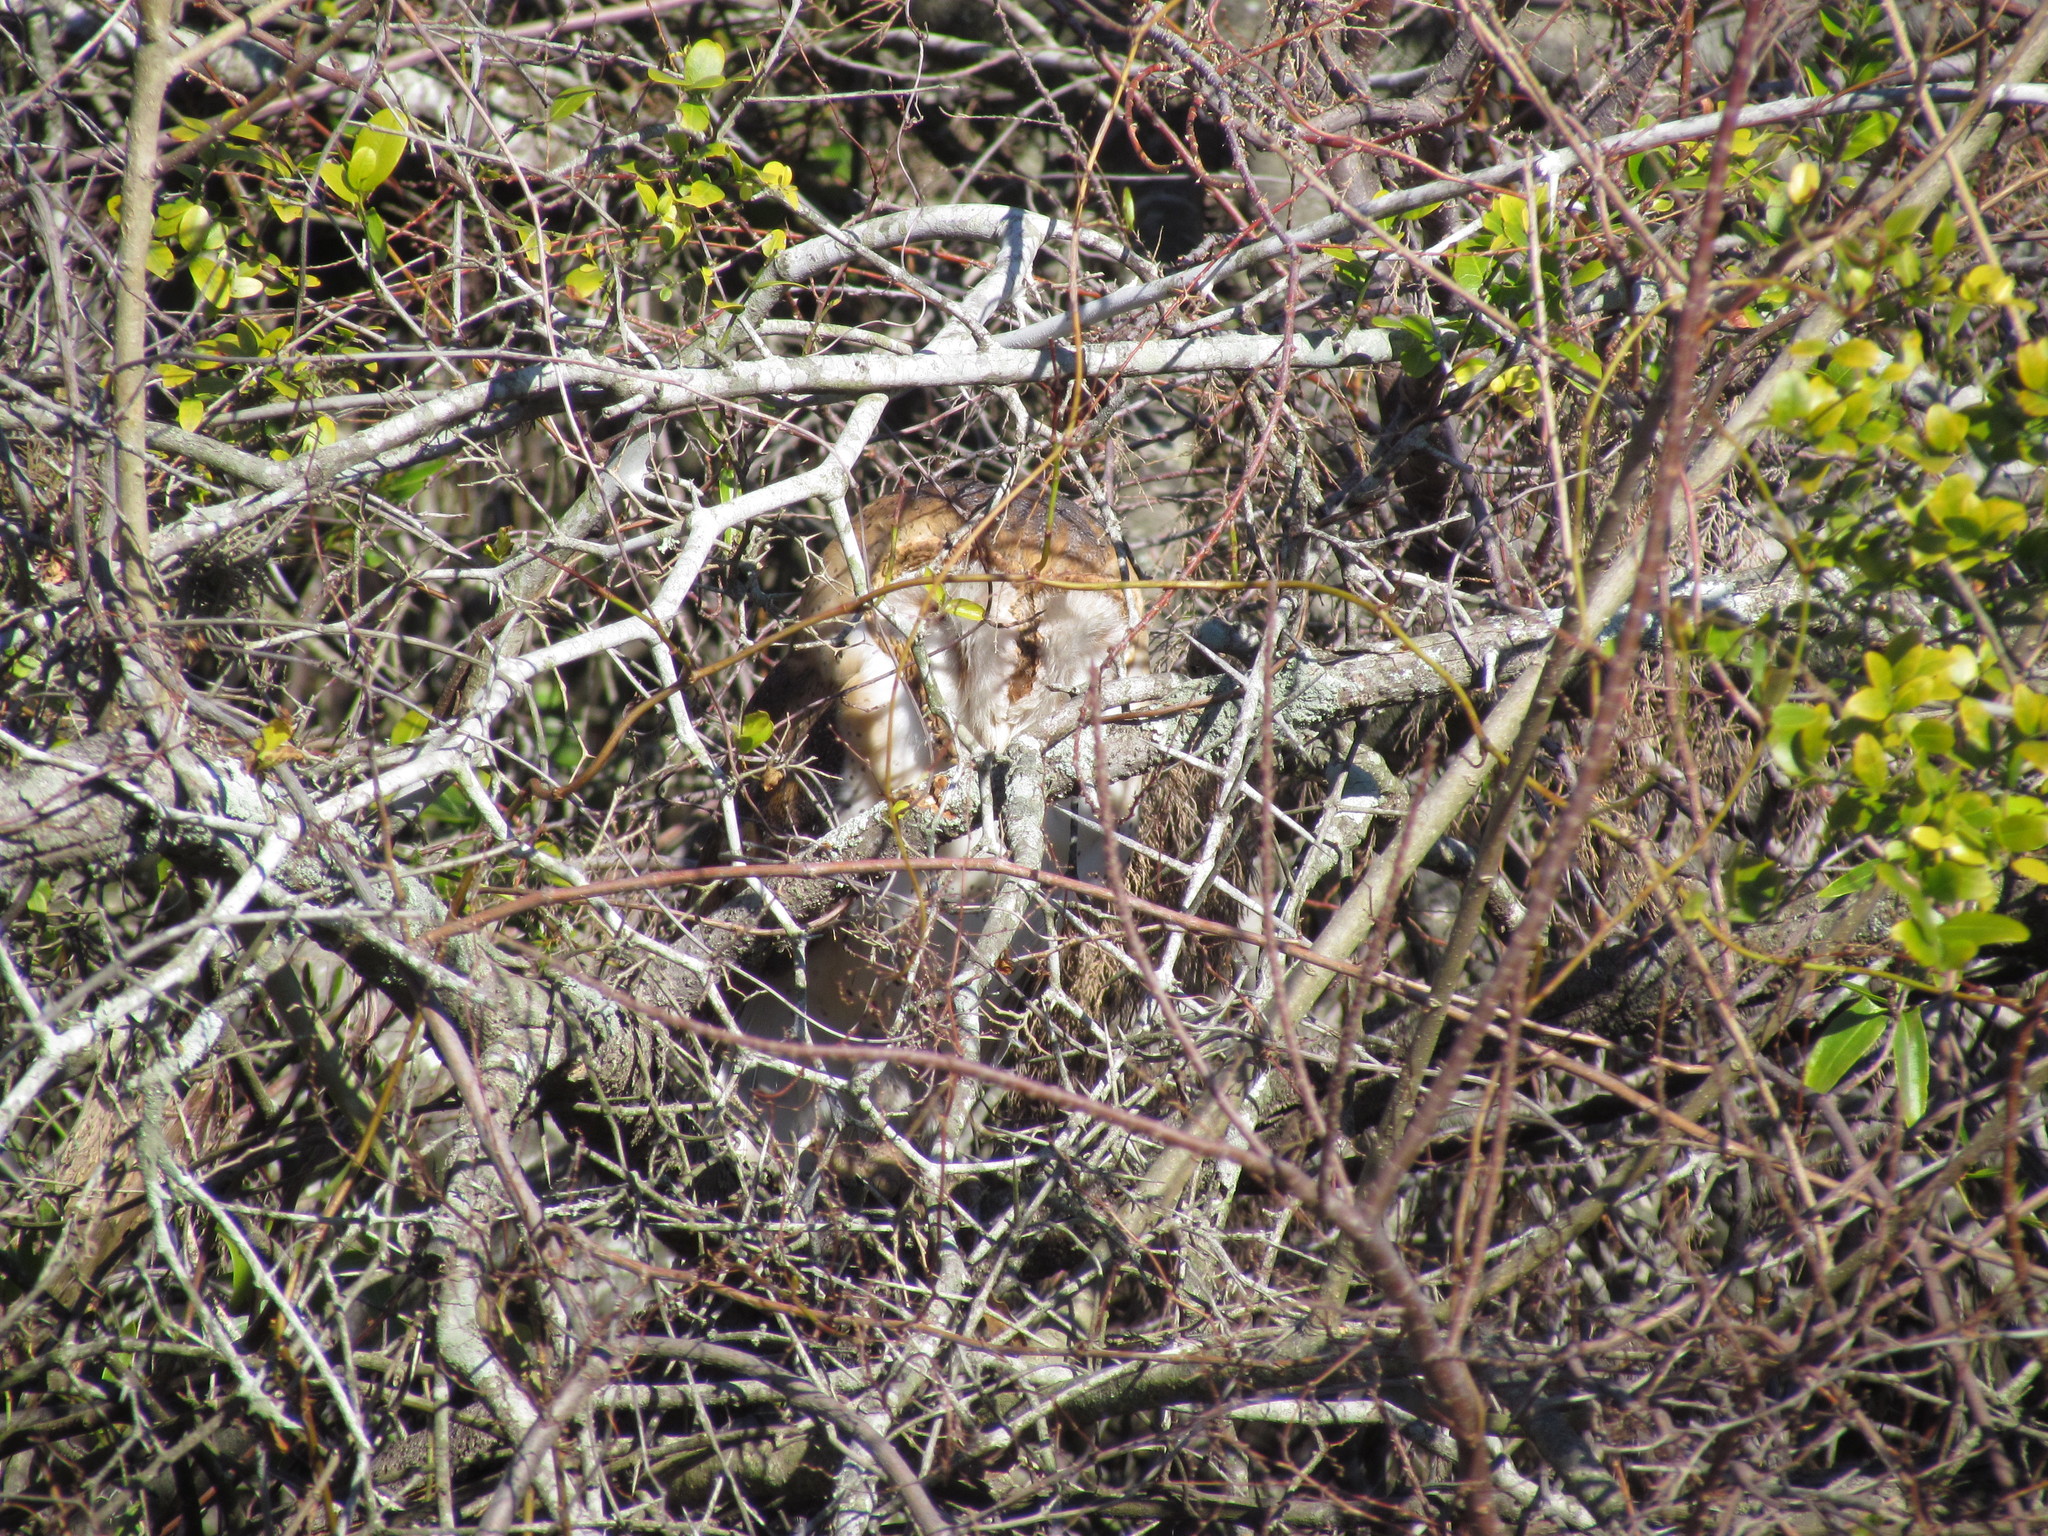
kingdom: Animalia
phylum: Chordata
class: Aves
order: Strigiformes
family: Tytonidae
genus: Tyto
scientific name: Tyto alba
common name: Barn owl
